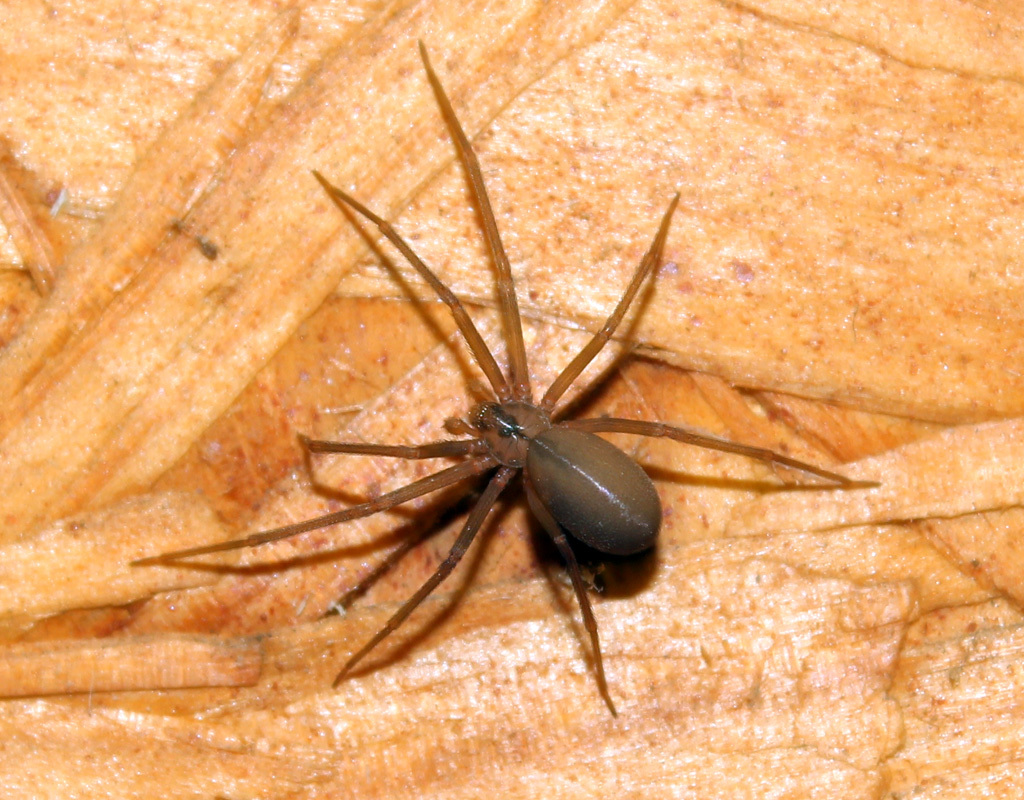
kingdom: Animalia
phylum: Arthropoda
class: Arachnida
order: Araneae
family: Sicariidae
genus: Loxosceles
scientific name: Loxosceles reclusa
